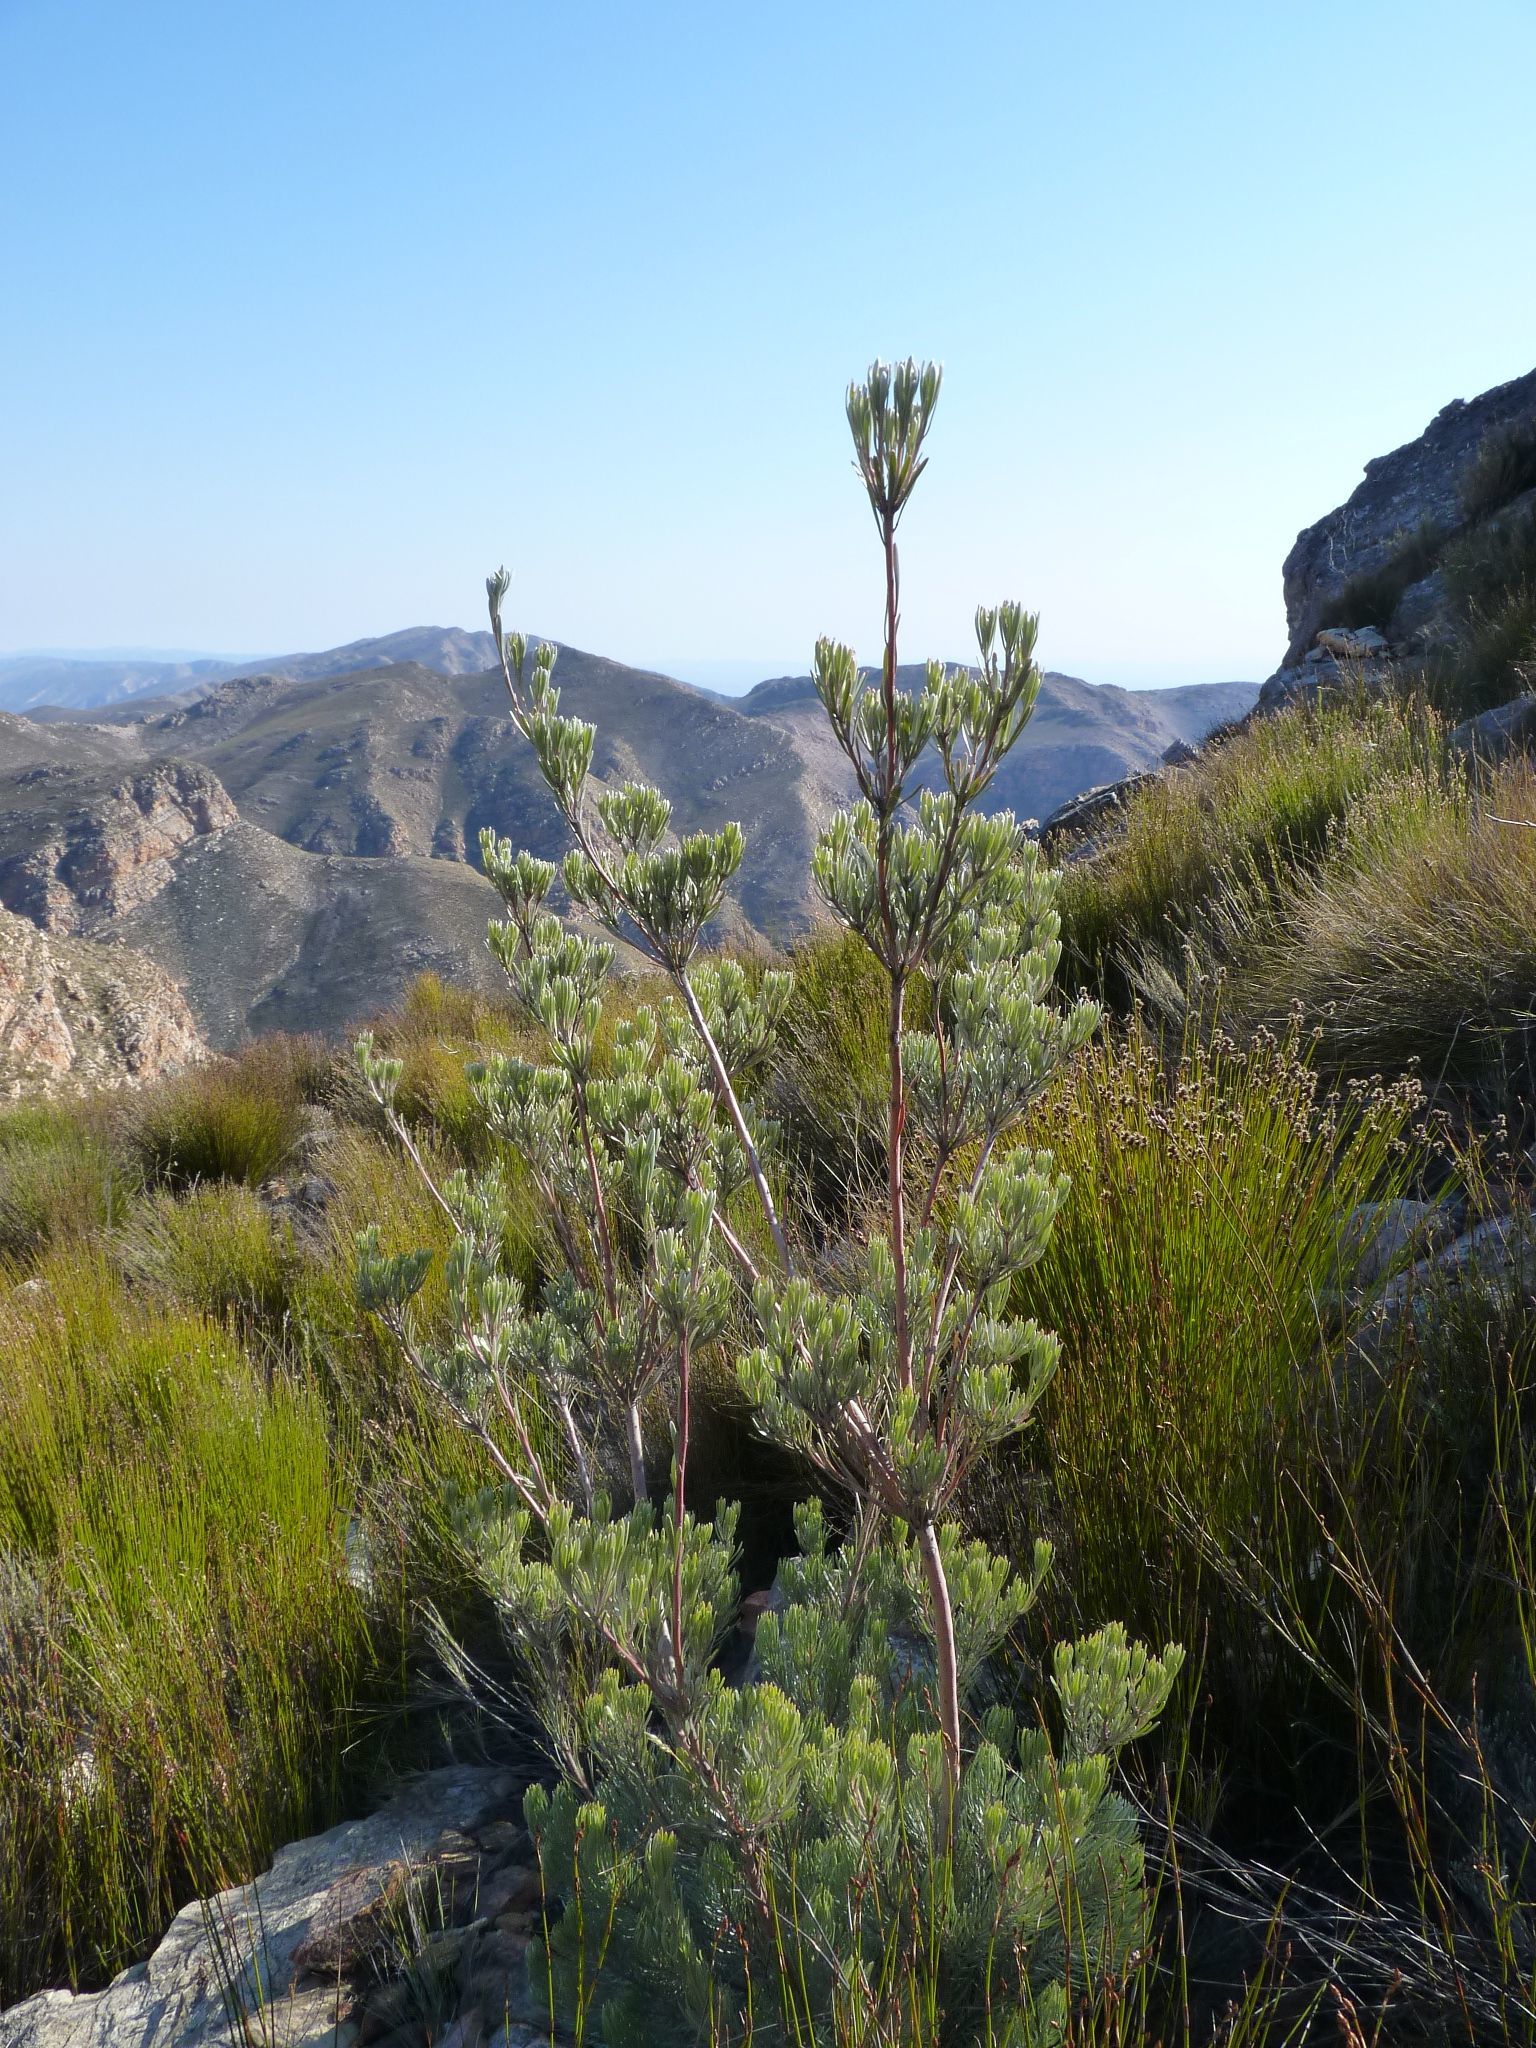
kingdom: Plantae
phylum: Tracheophyta
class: Magnoliopsida
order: Proteales
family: Proteaceae
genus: Leucadendron
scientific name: Leucadendron album
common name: Linear-leaf conebush
